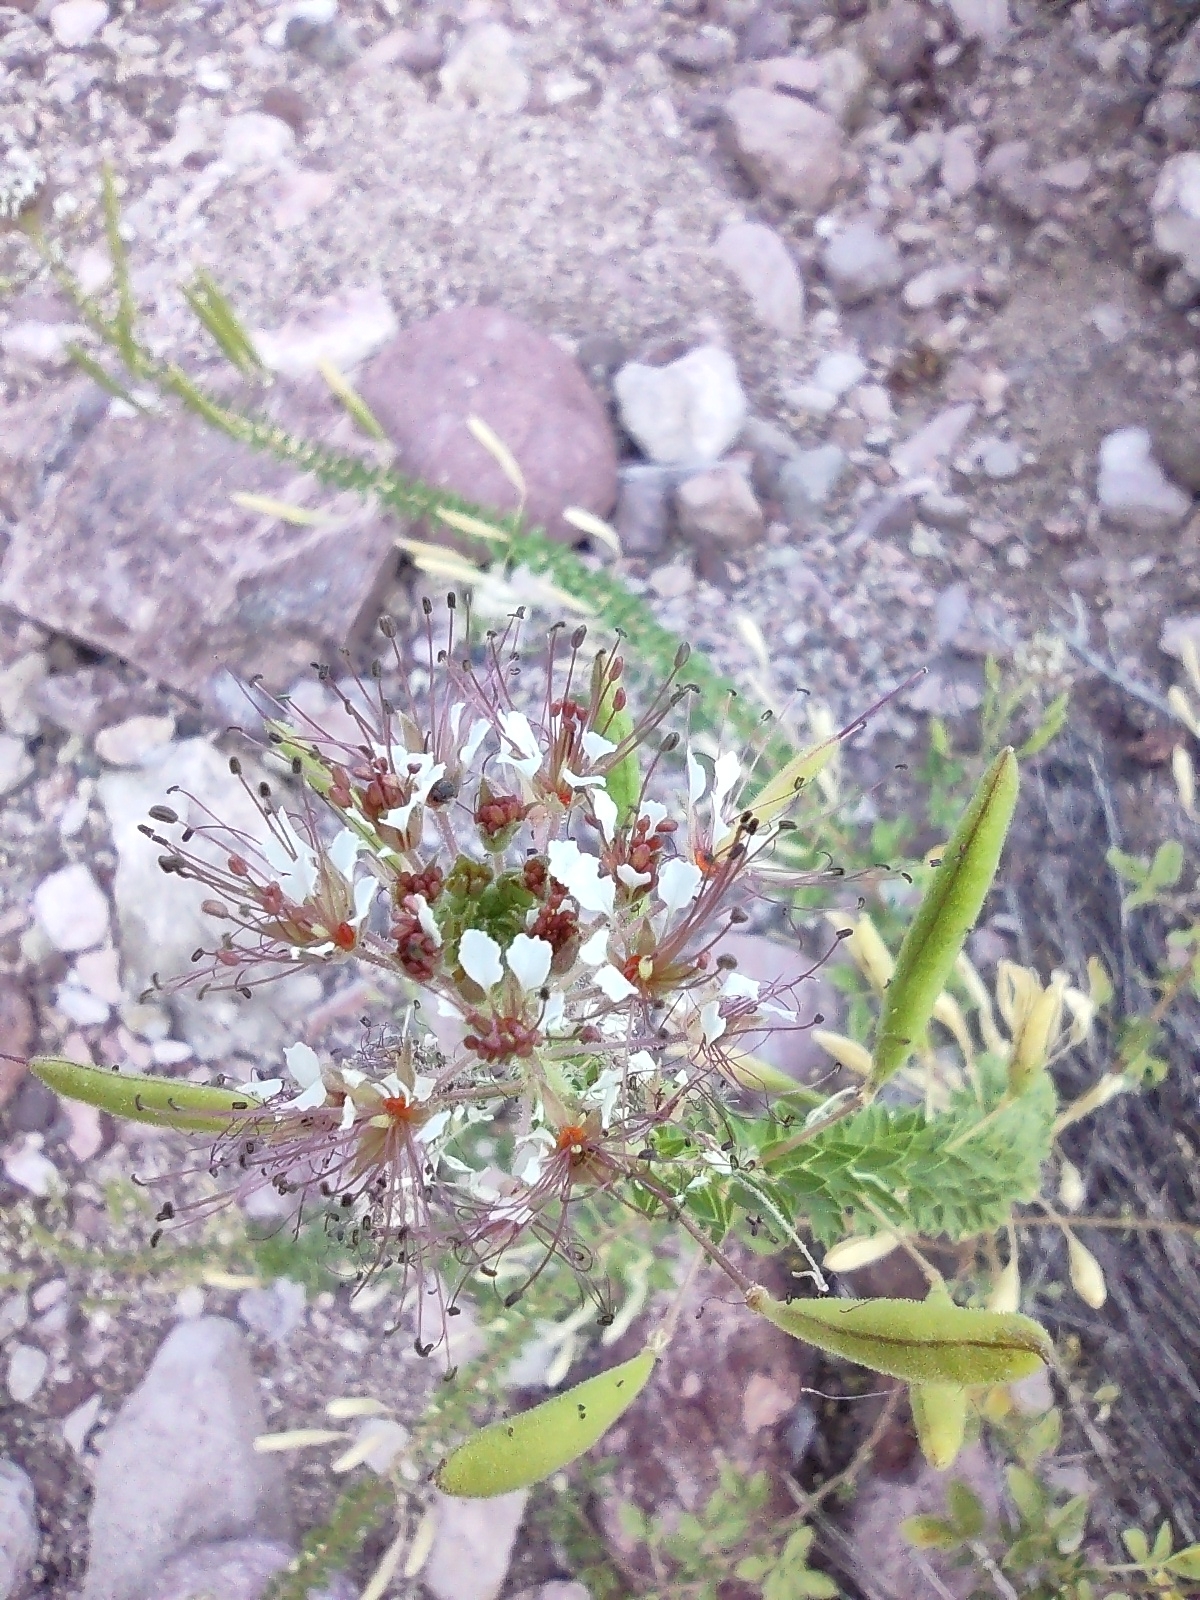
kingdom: Plantae
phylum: Tracheophyta
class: Magnoliopsida
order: Brassicales
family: Cleomaceae
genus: Polanisia
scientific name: Polanisia dodecandra
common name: Clammyweed
